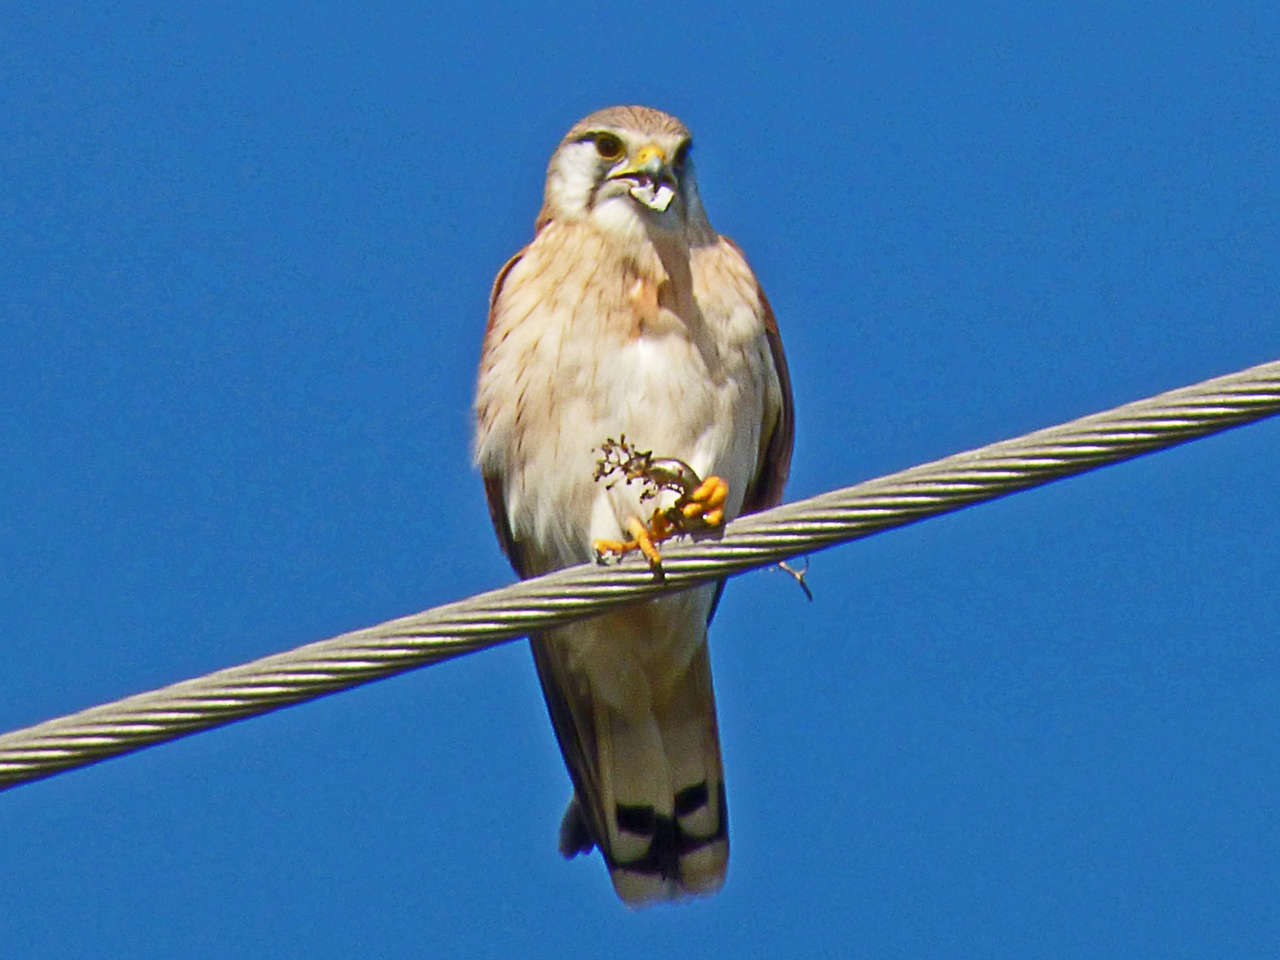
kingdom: Animalia
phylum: Chordata
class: Aves
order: Falconiformes
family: Falconidae
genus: Falco
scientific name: Falco cenchroides
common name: Nankeen kestrel
